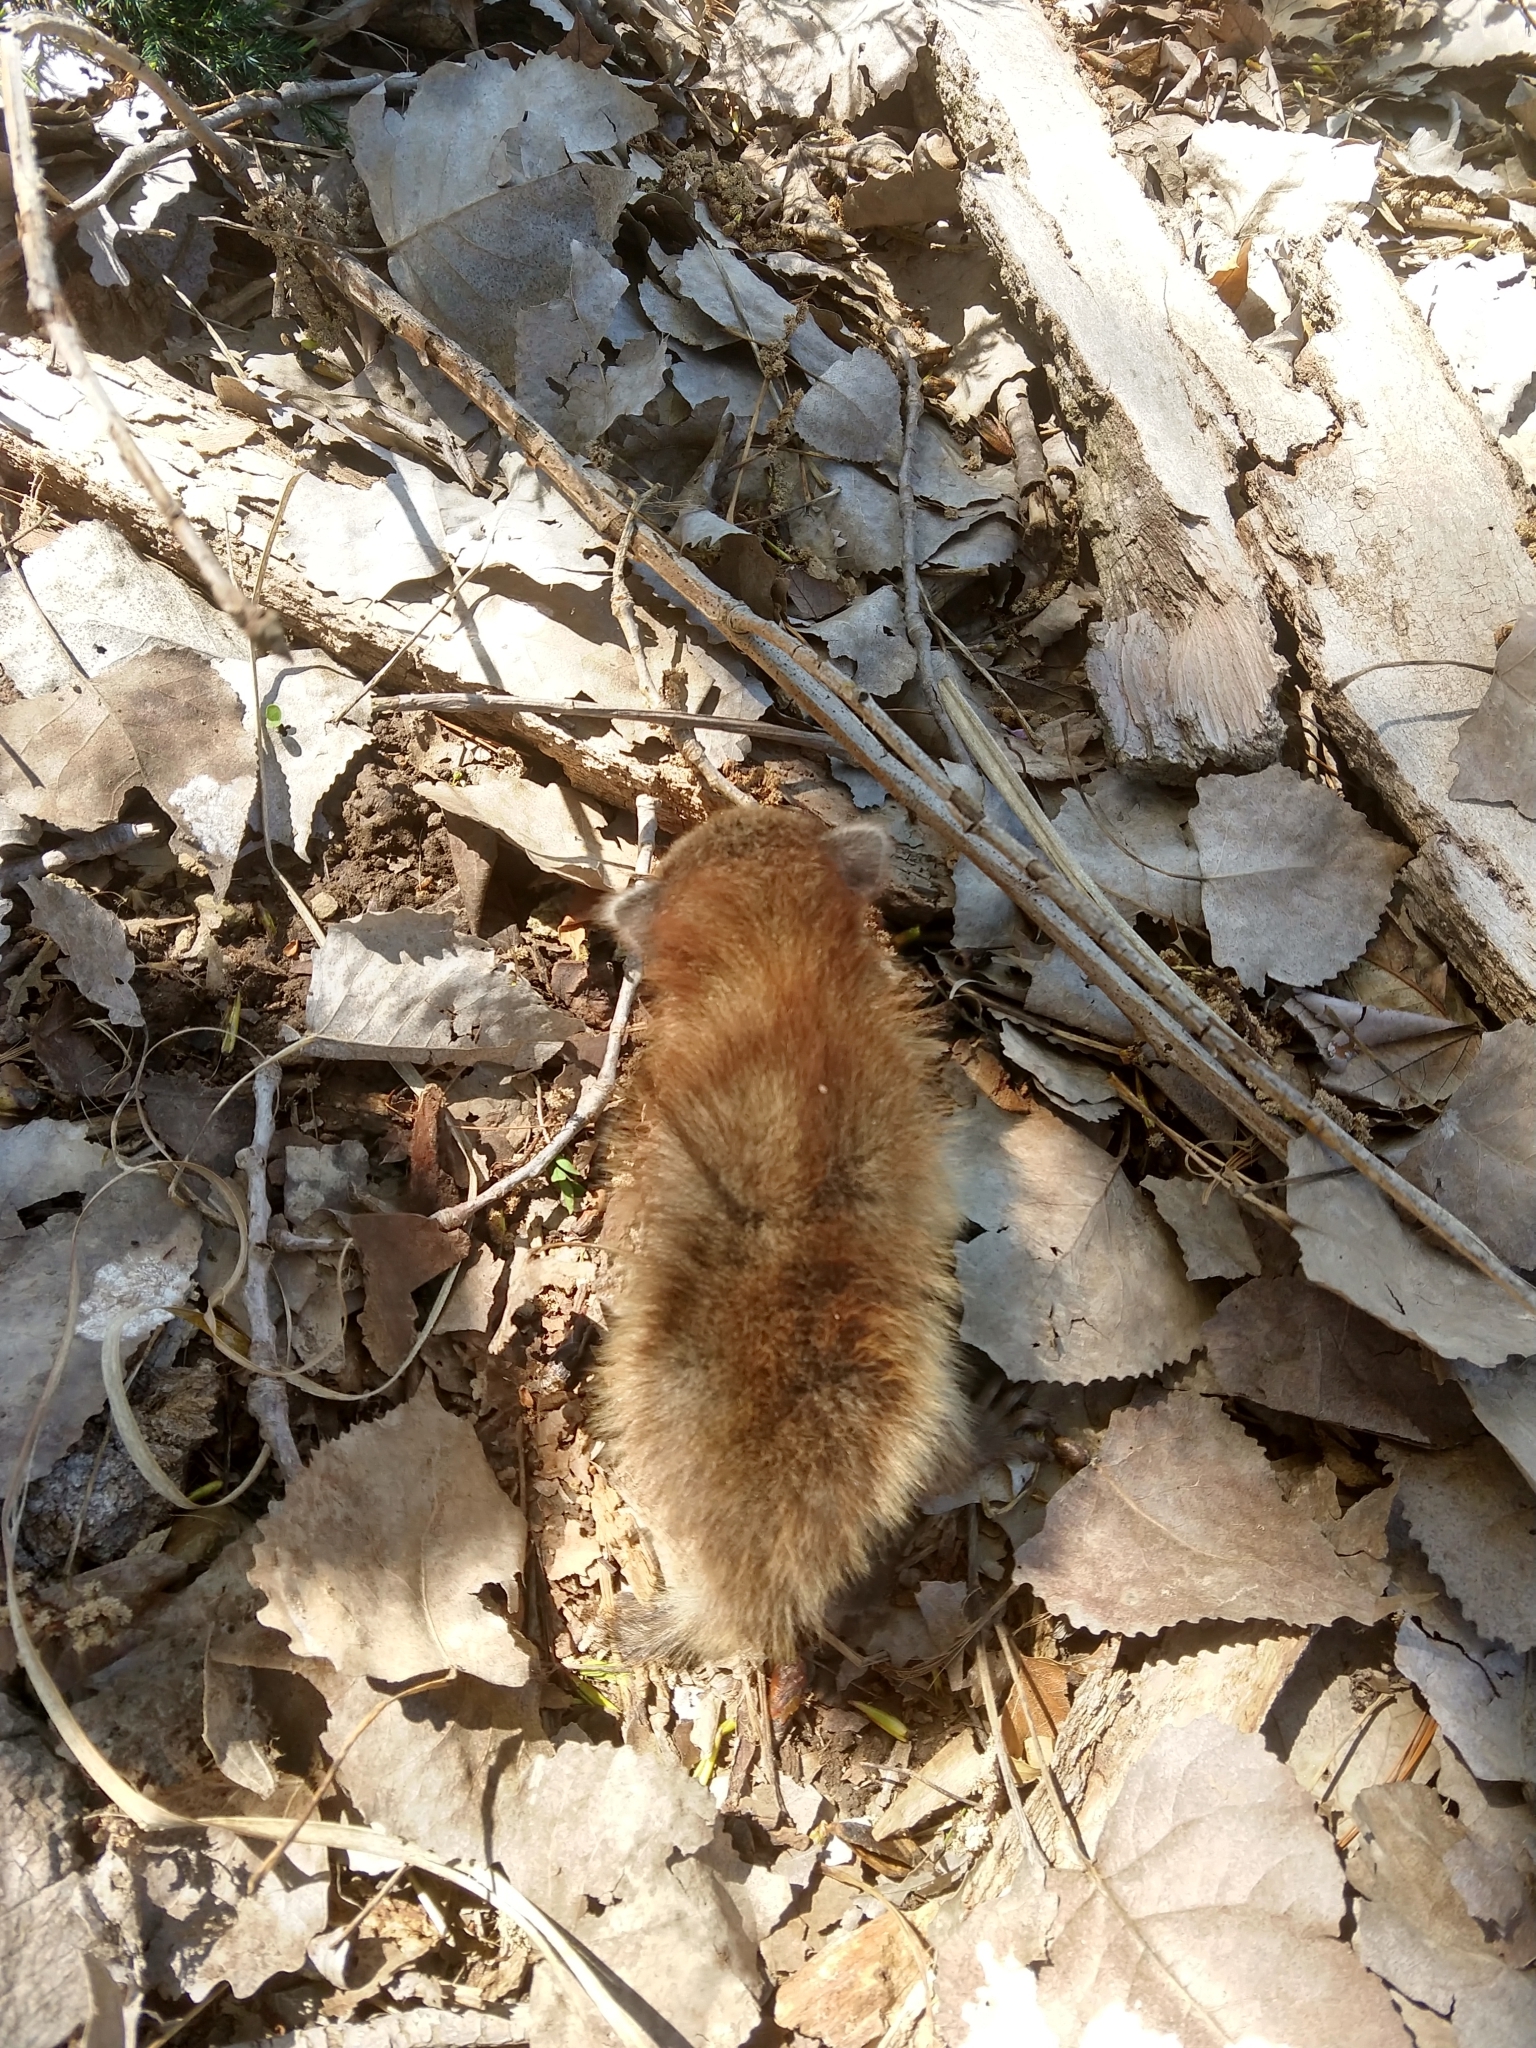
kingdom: Animalia
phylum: Chordata
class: Mammalia
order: Carnivora
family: Procyonidae
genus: Procyon
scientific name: Procyon lotor
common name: Raccoon
